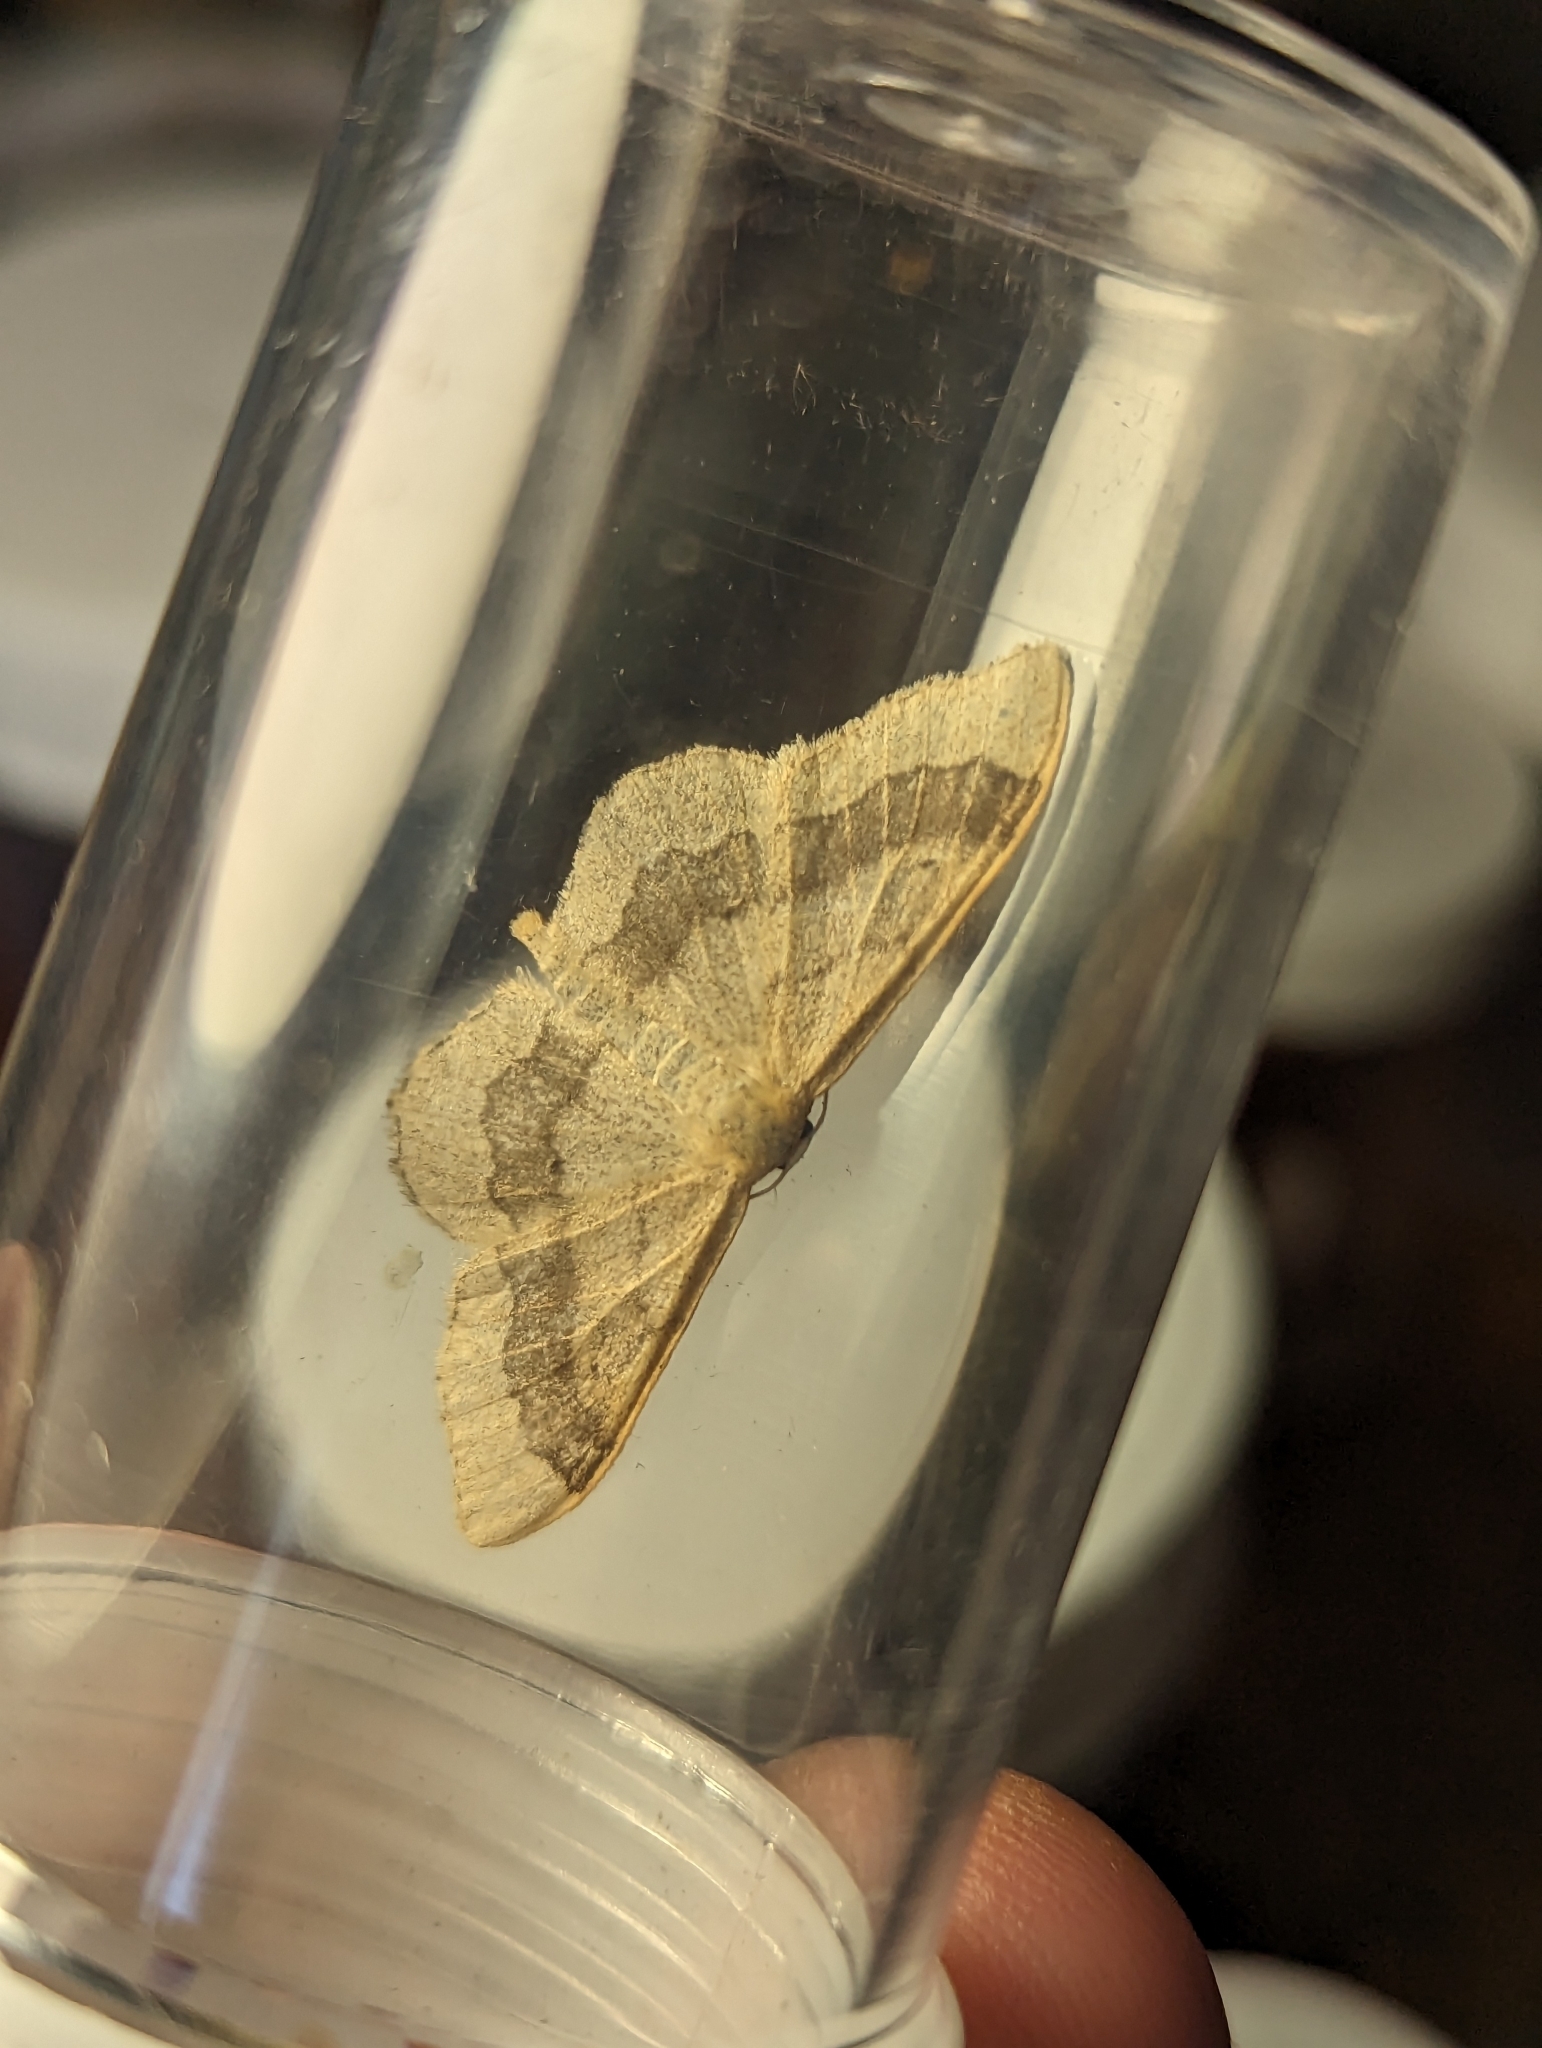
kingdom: Animalia
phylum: Arthropoda
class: Insecta
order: Lepidoptera
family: Geometridae
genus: Idaea
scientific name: Idaea aversata
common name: Riband wave
